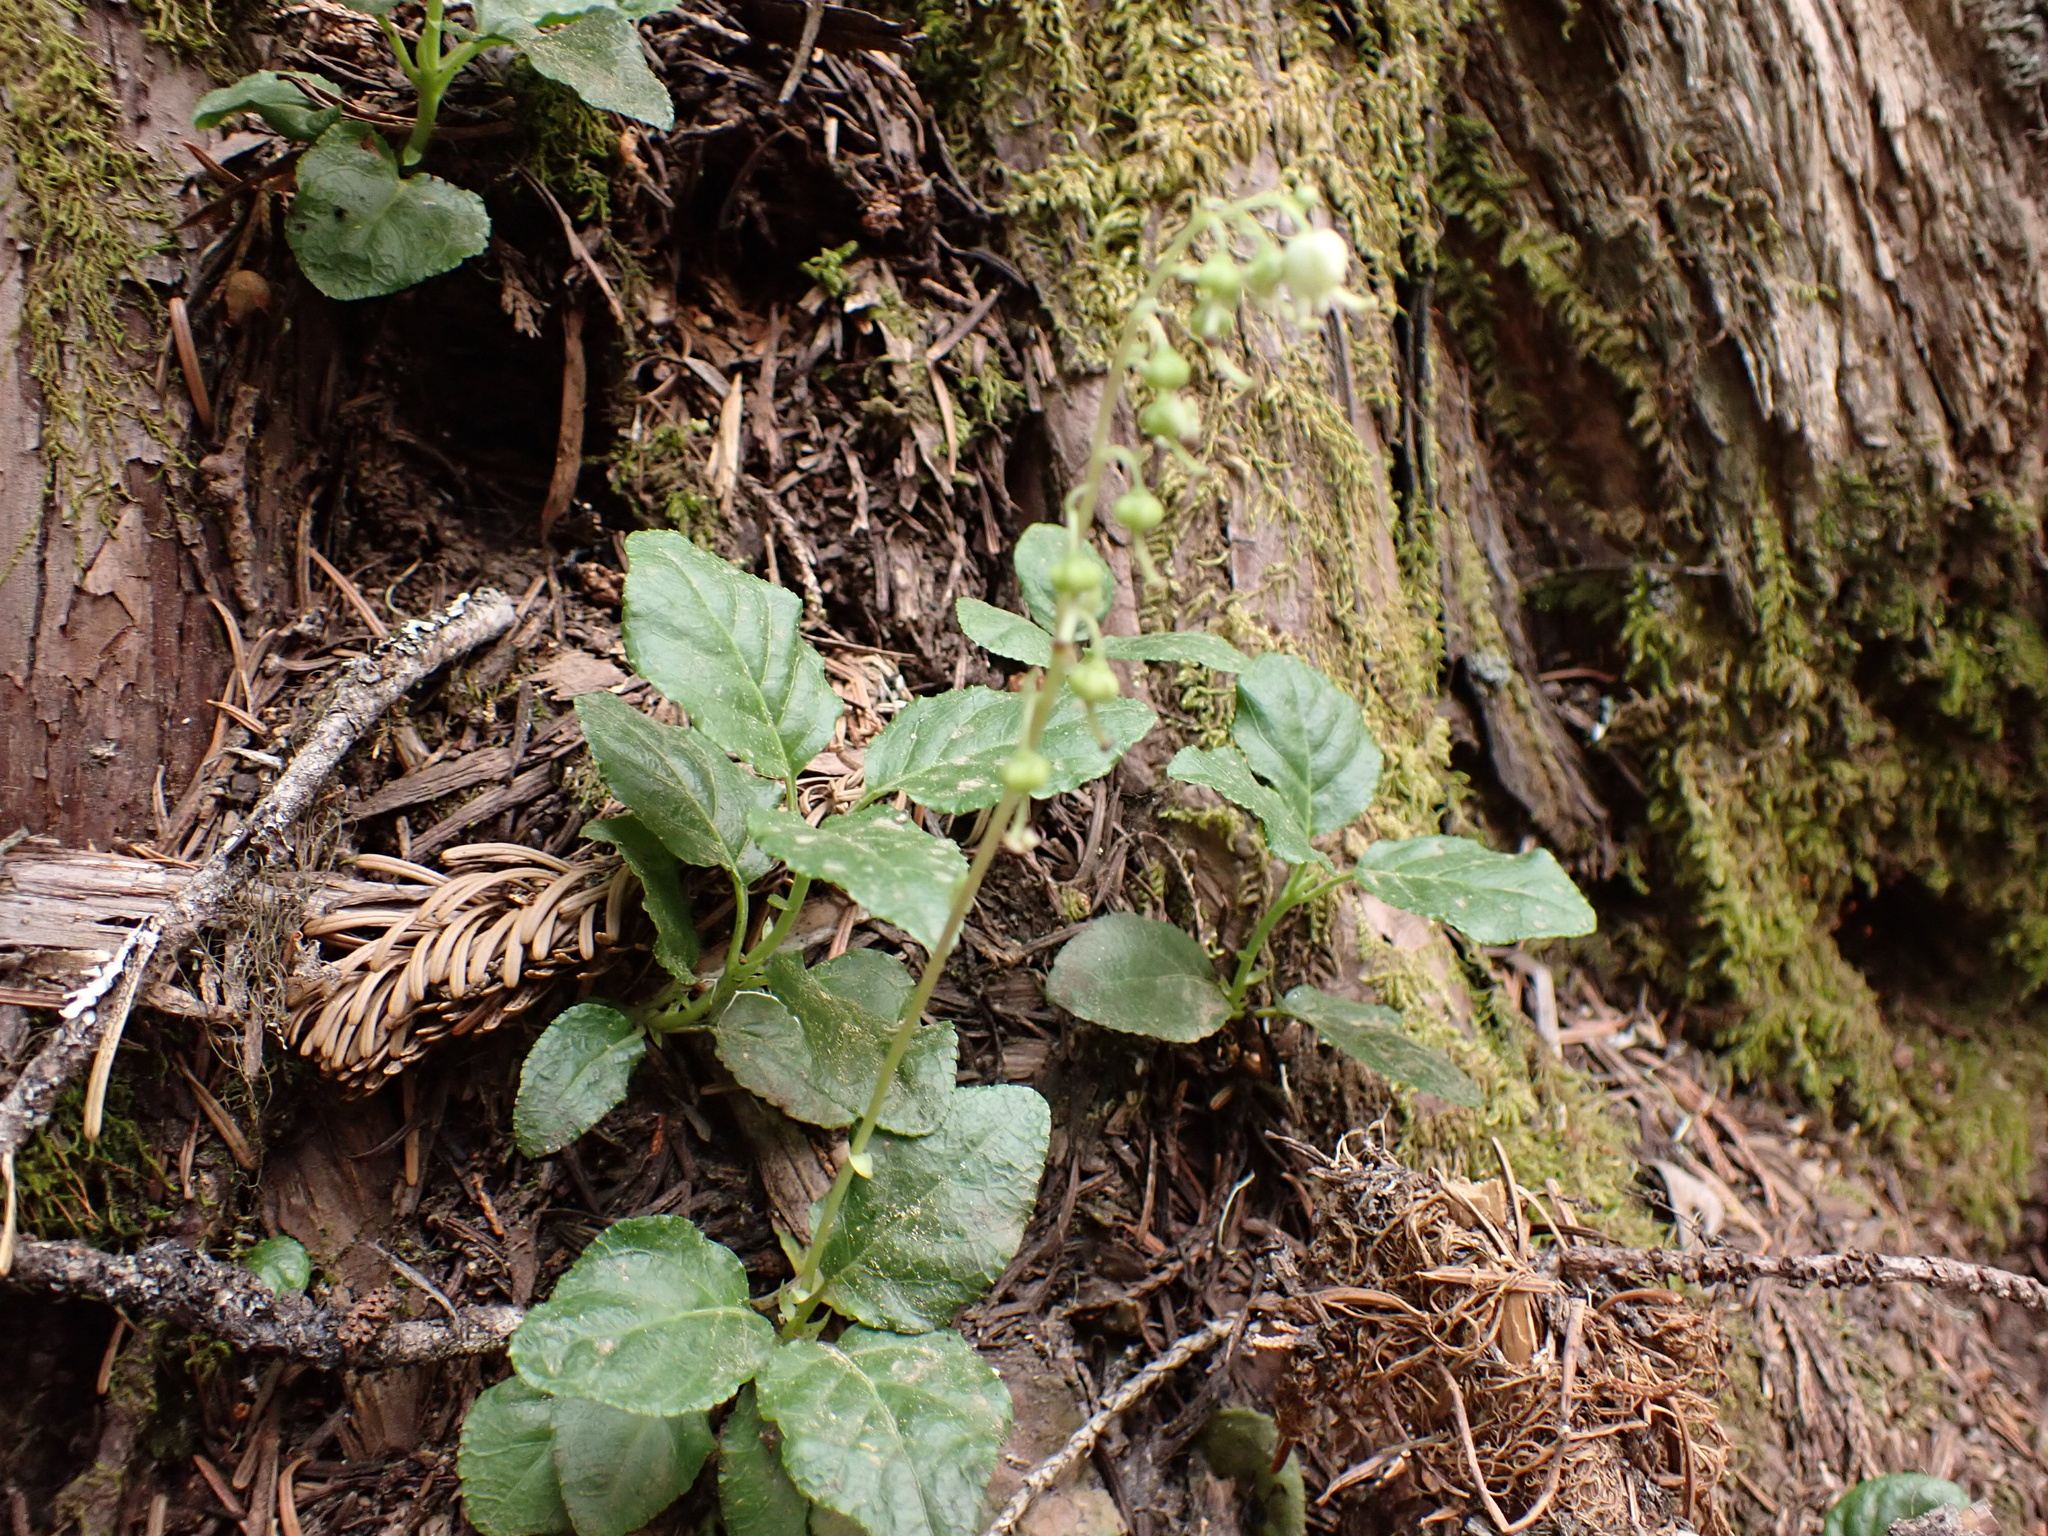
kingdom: Plantae
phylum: Tracheophyta
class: Magnoliopsida
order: Ericales
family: Ericaceae
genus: Orthilia
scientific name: Orthilia secunda
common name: One-sided orthilia
